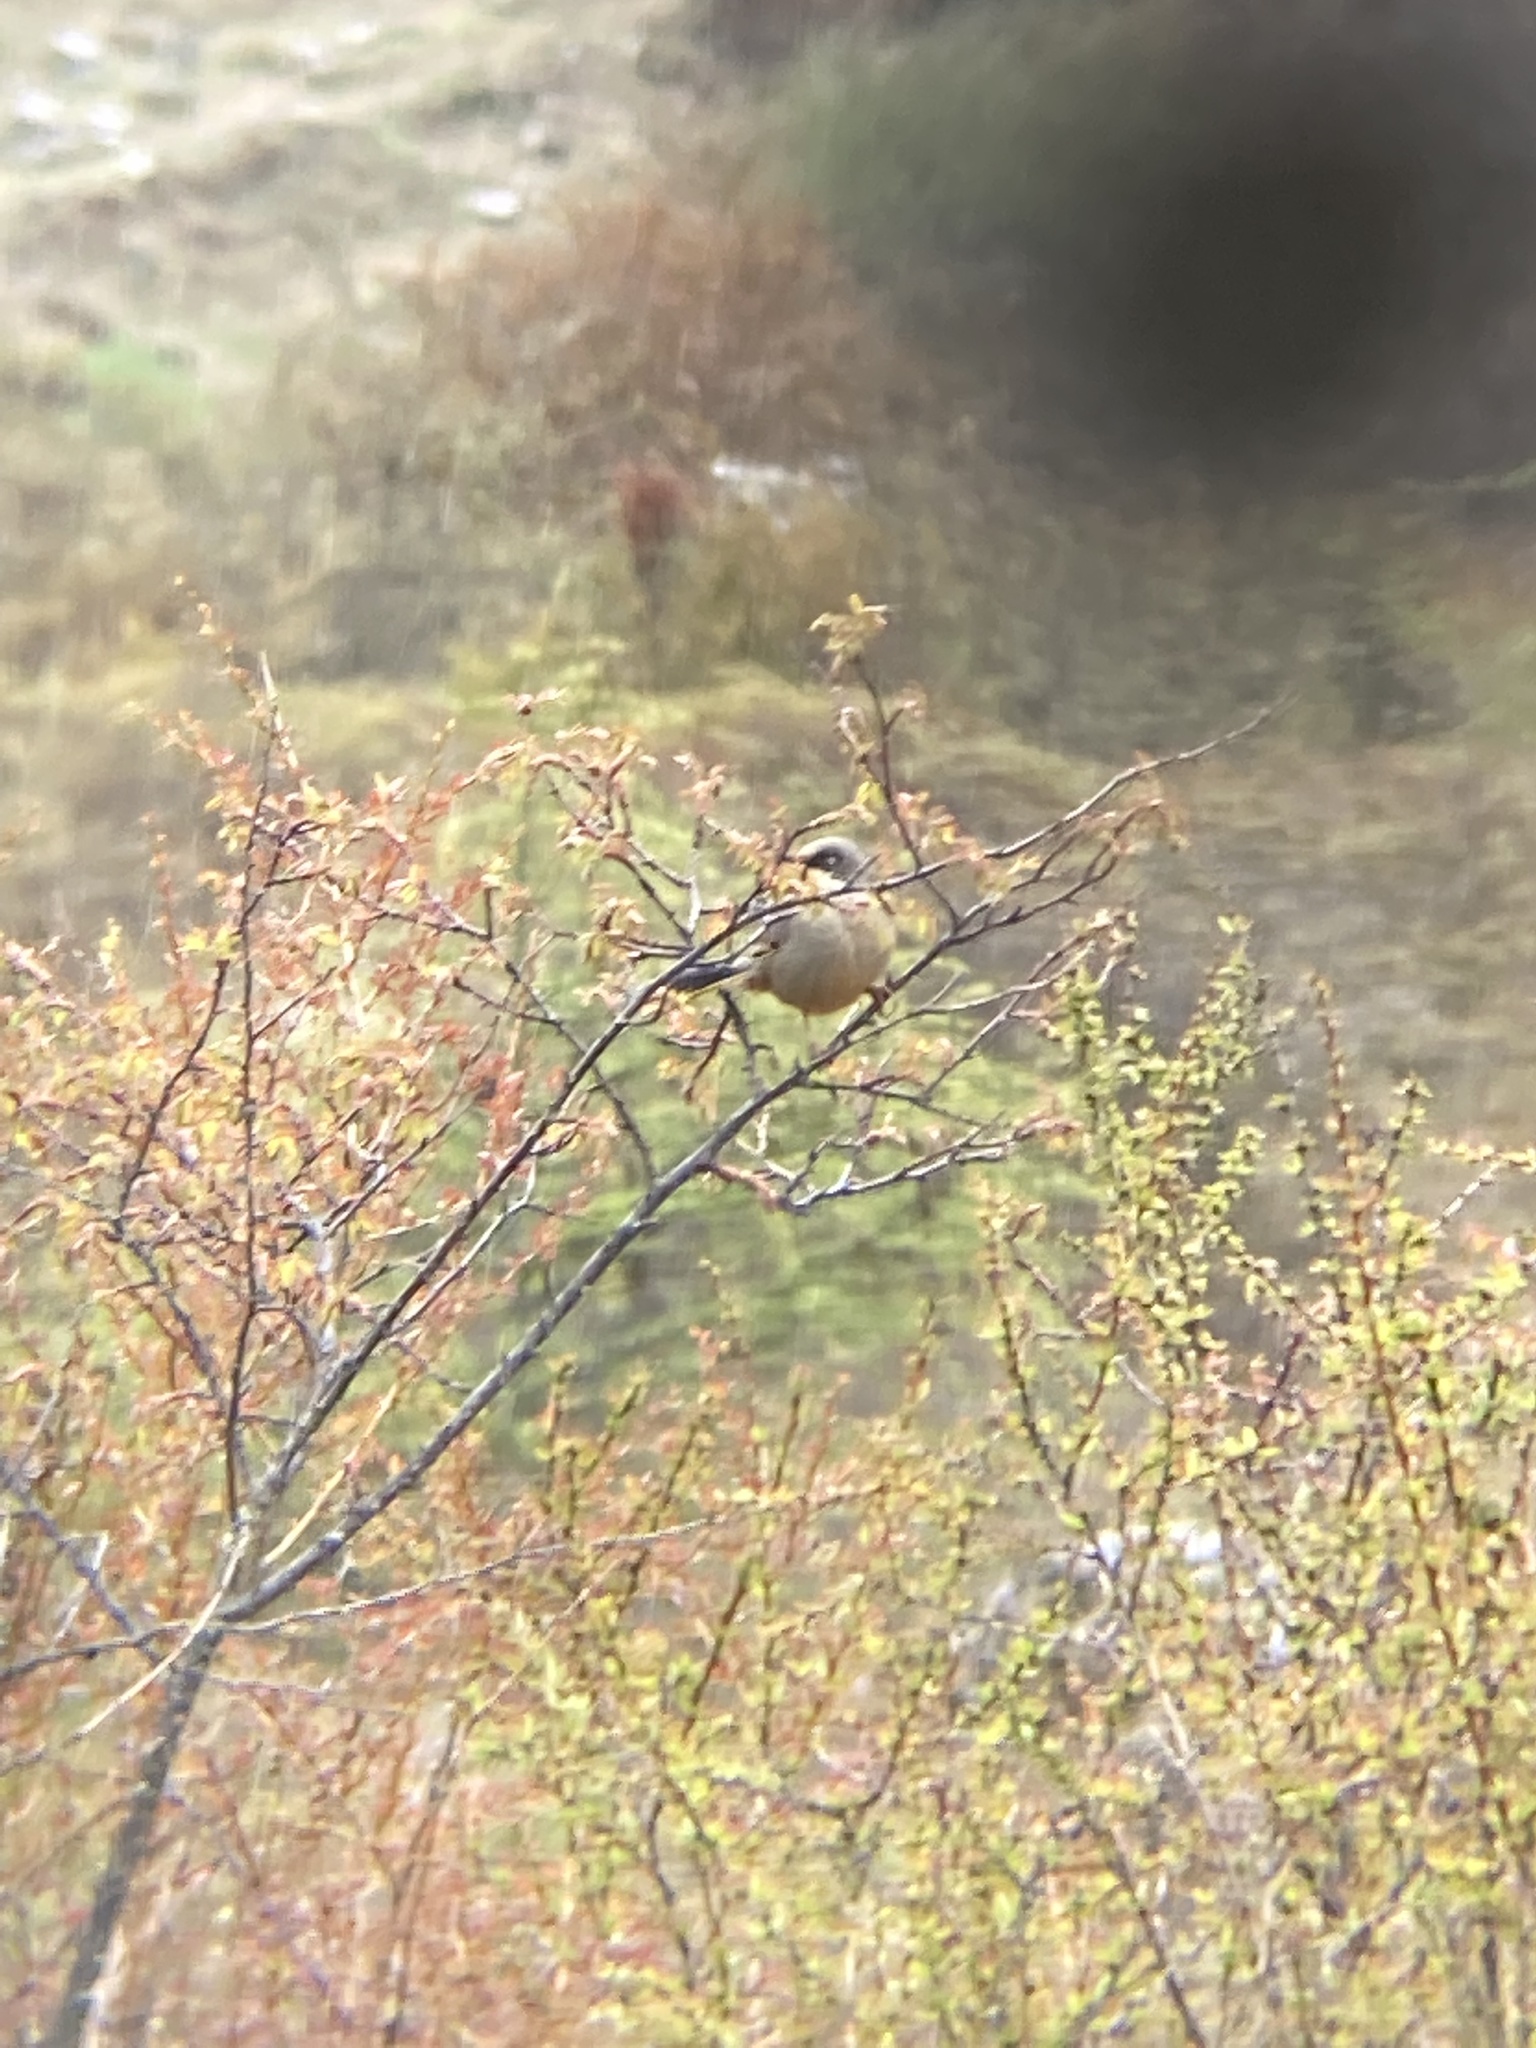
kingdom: Animalia
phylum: Chordata
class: Aves
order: Passeriformes
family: Leiothrichidae
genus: Trochalopteron
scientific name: Trochalopteron variegatum
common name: Variegated laughingthrush
